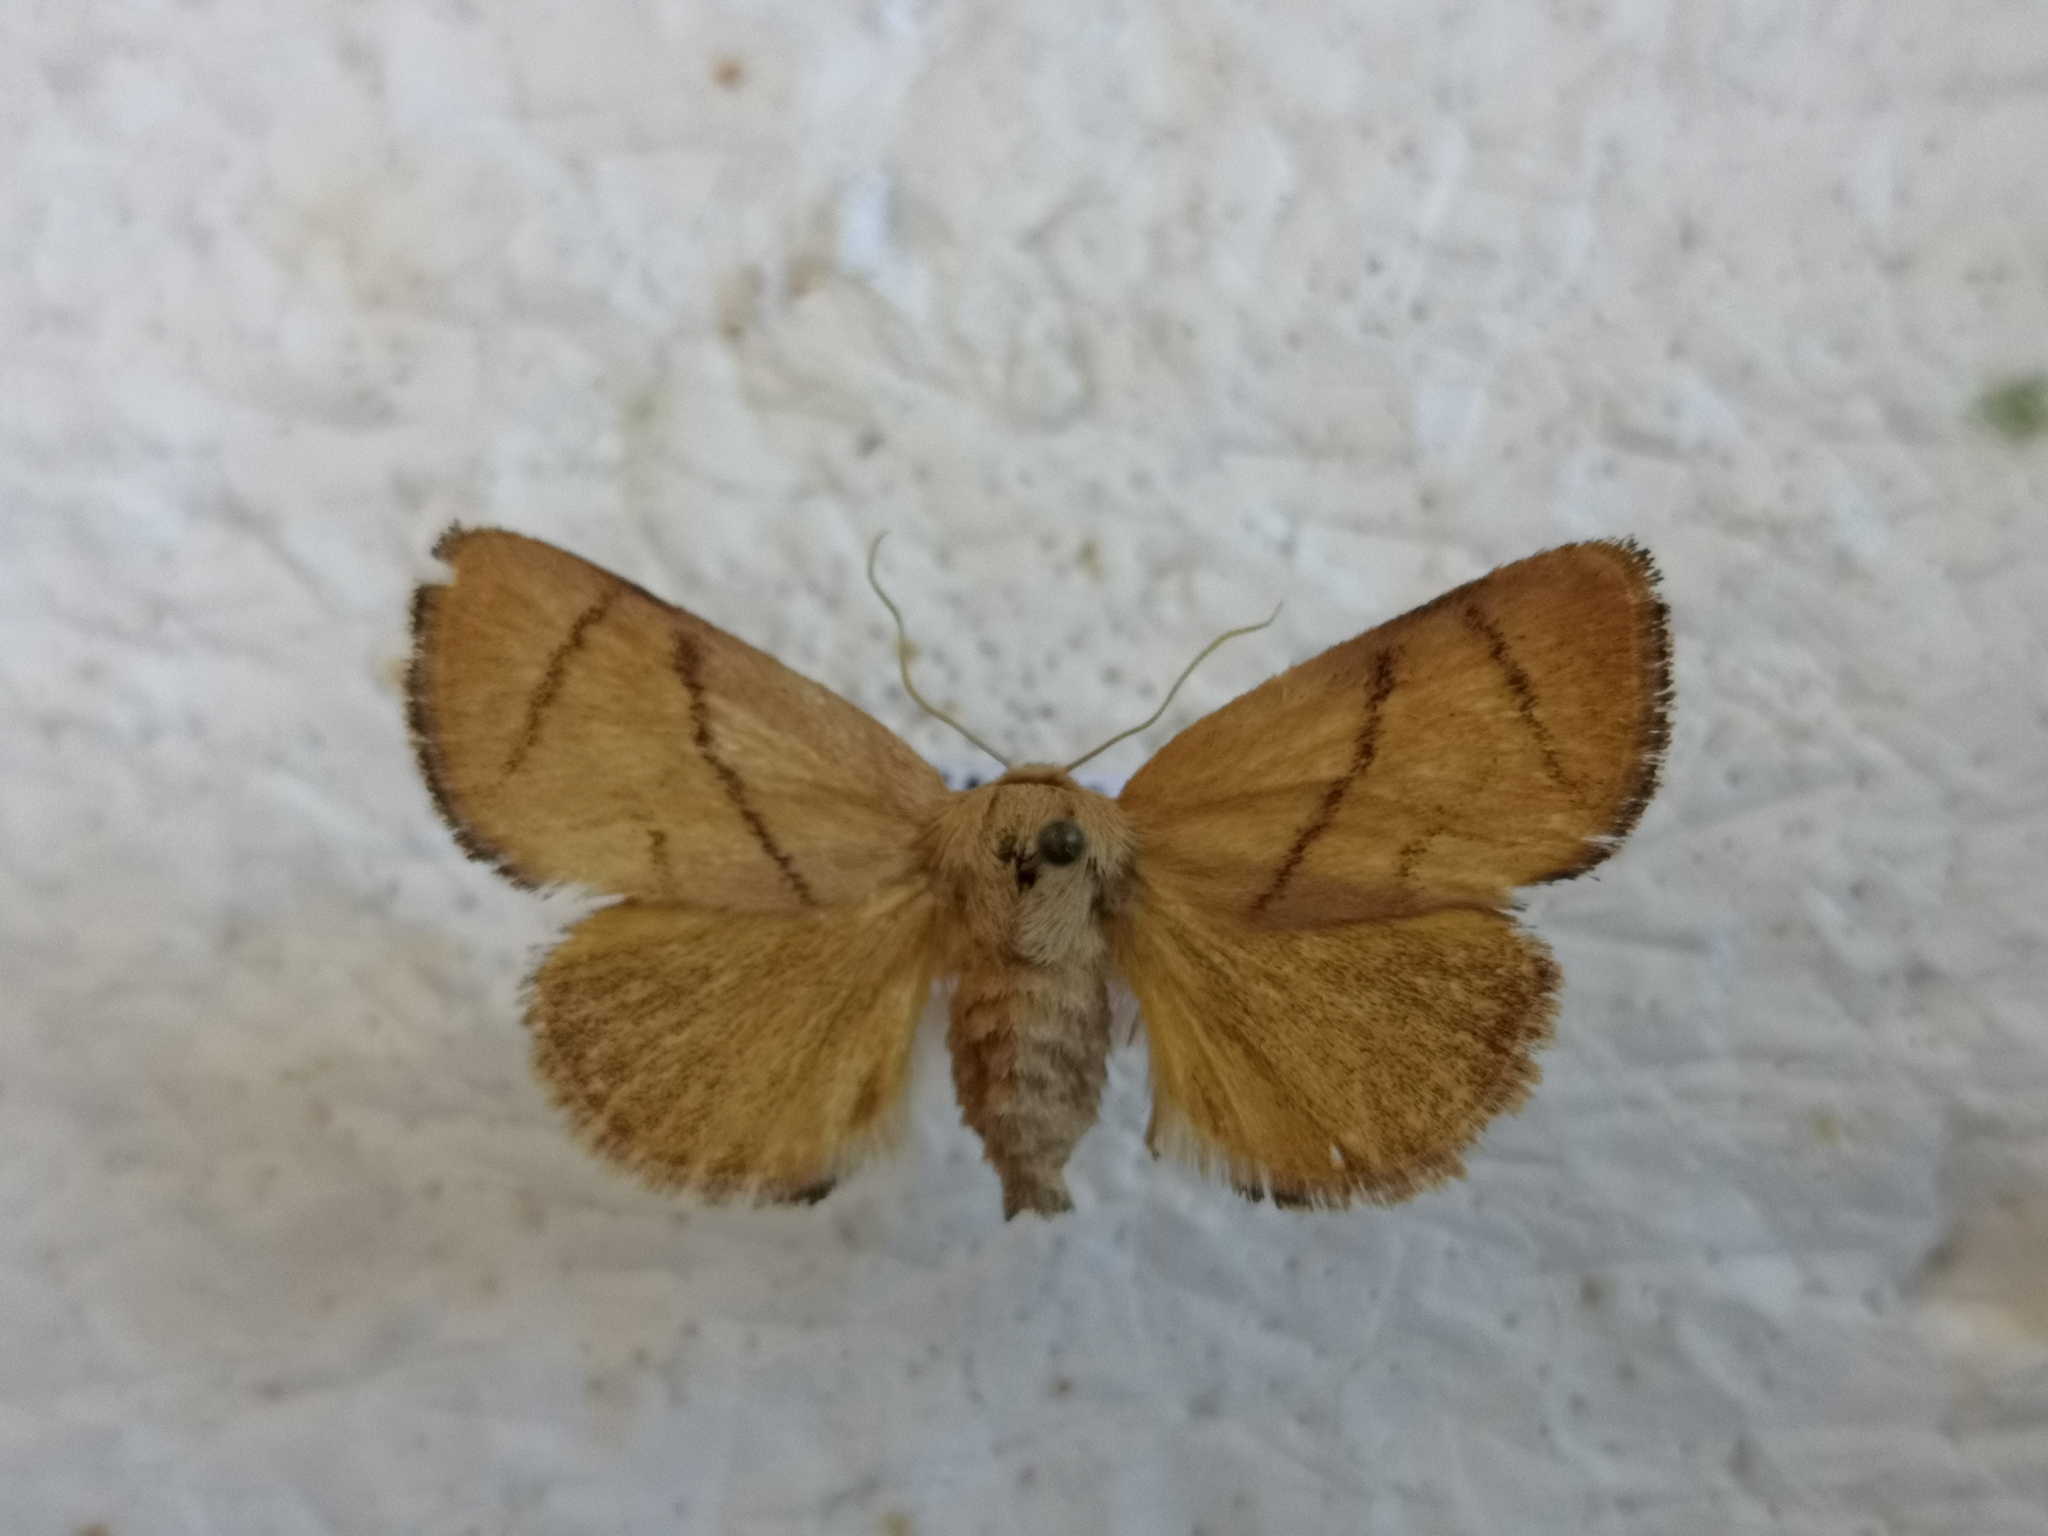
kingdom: Animalia
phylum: Arthropoda
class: Insecta
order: Lepidoptera
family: Limacodidae
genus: Apoda
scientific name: Apoda limacodes
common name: Festoon
